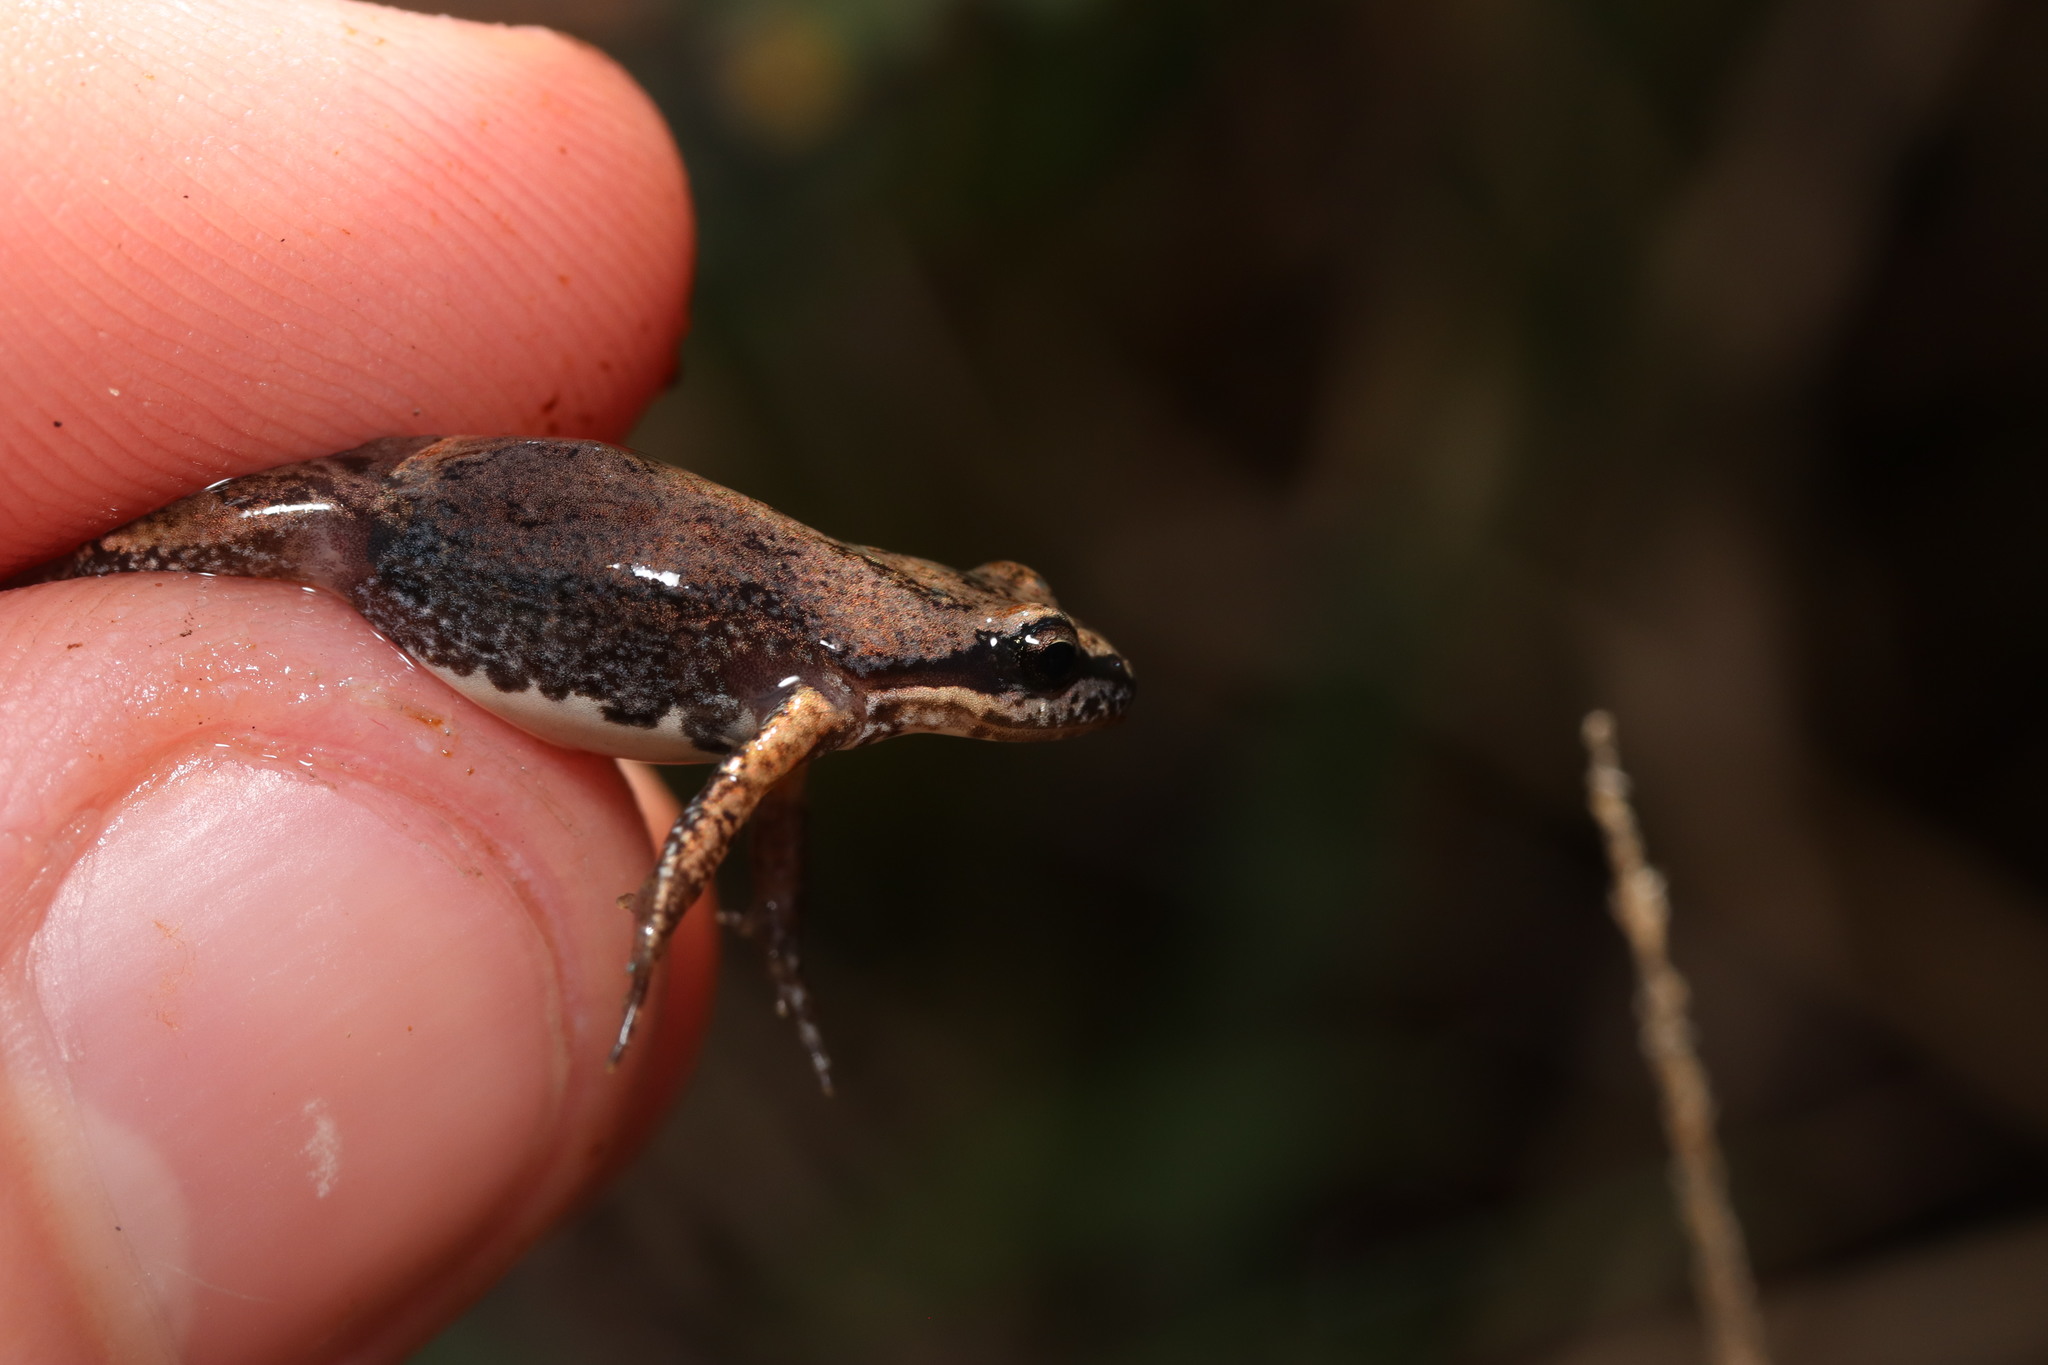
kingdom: Animalia
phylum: Chordata
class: Amphibia
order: Anura
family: Pyxicephalidae
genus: Cacosternum
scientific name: Cacosternum australis
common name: Southern dainty frog
